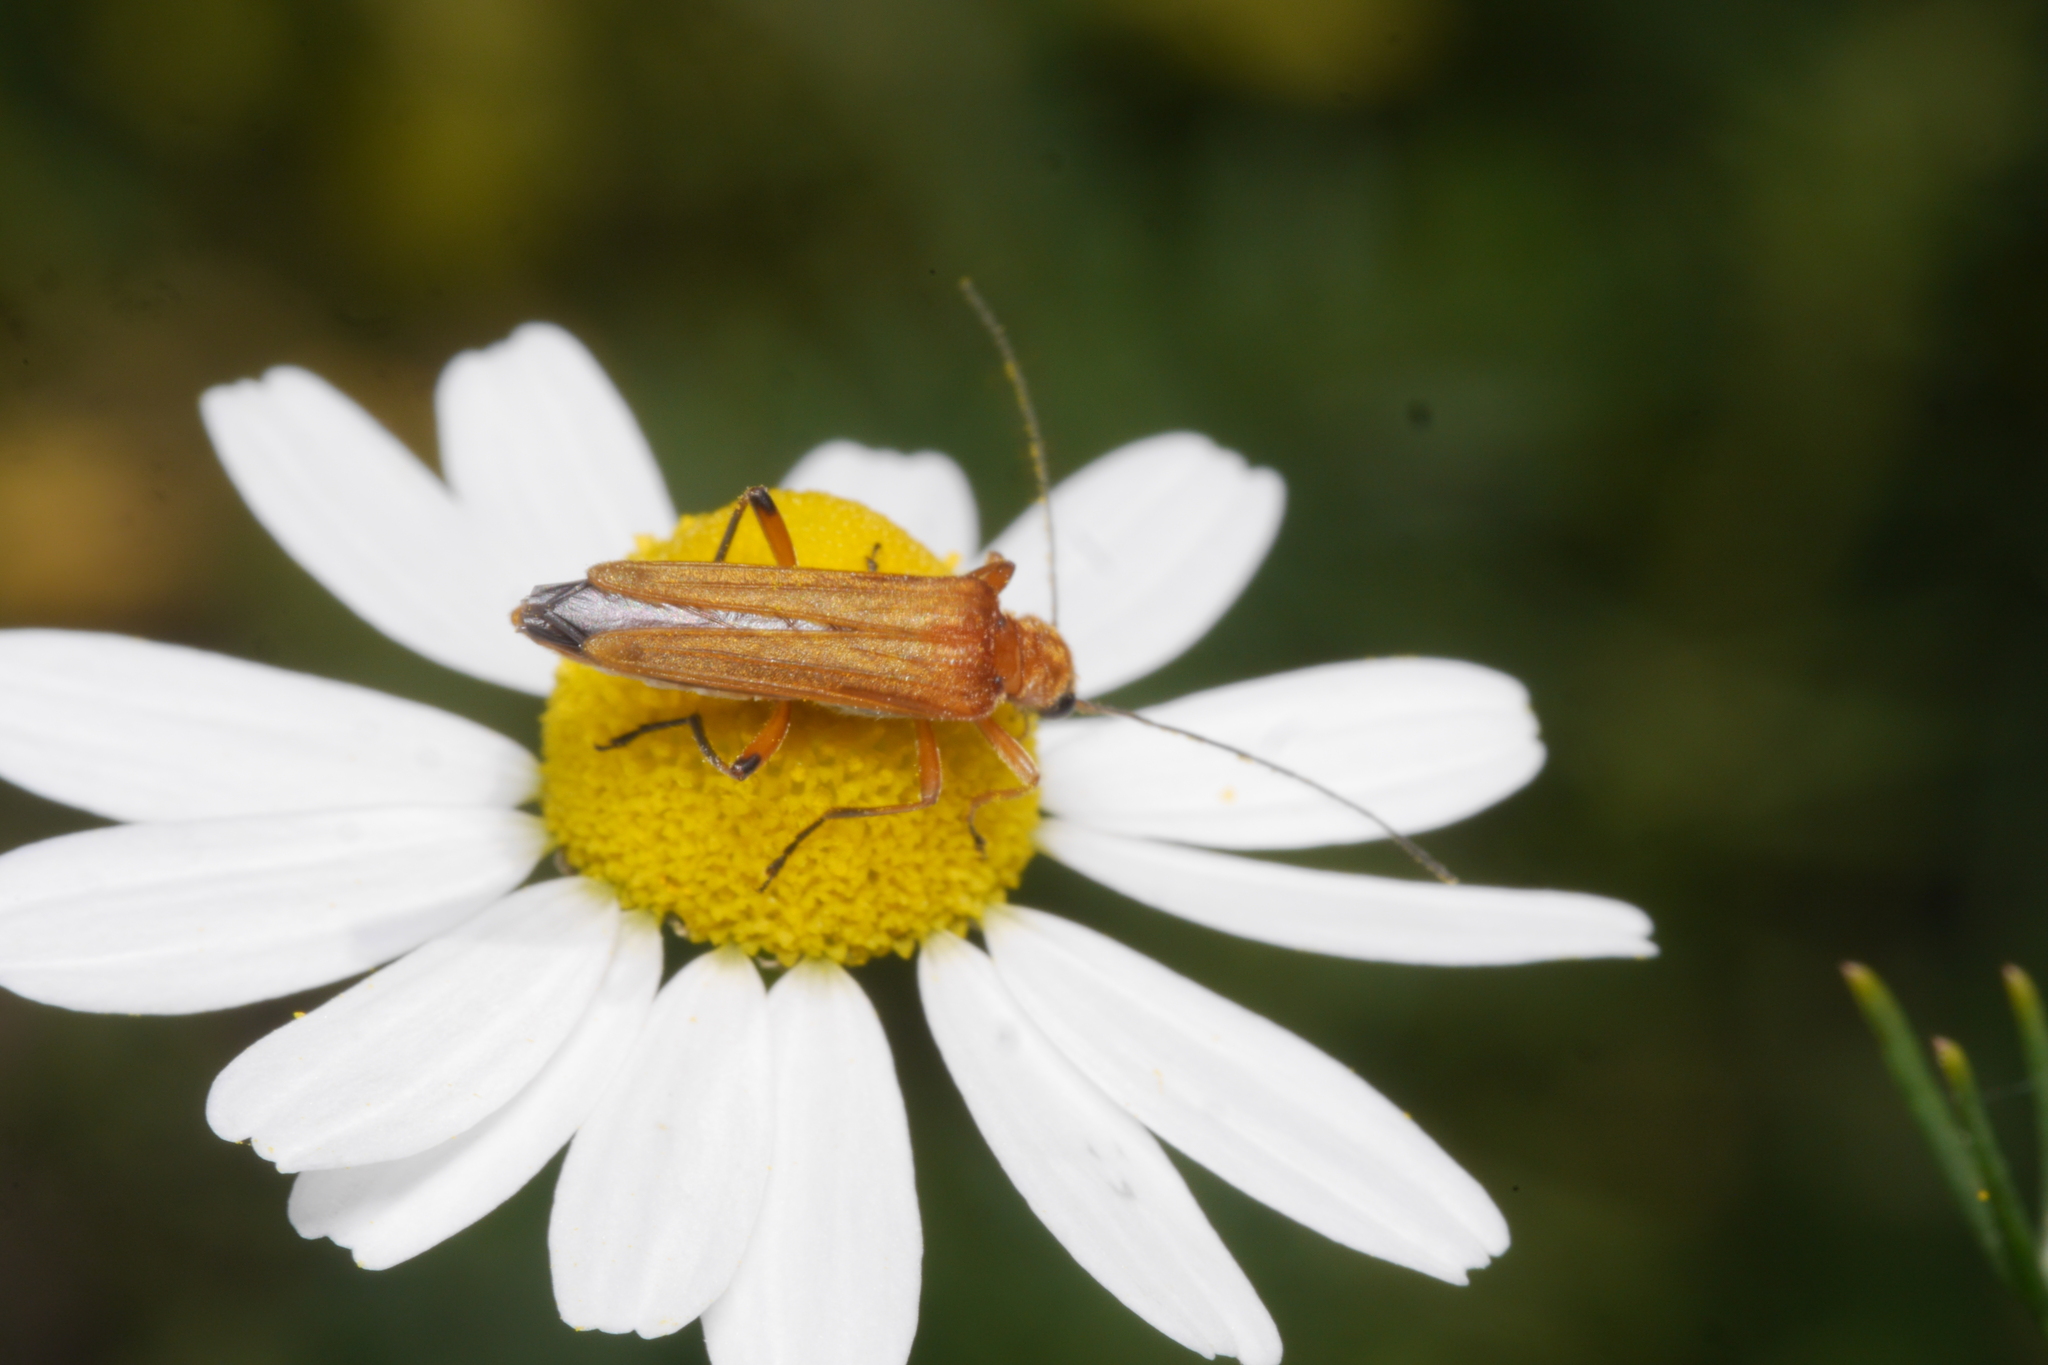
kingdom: Animalia
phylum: Arthropoda
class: Insecta
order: Coleoptera
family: Oedemeridae
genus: Oedemera
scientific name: Oedemera podagrariae
